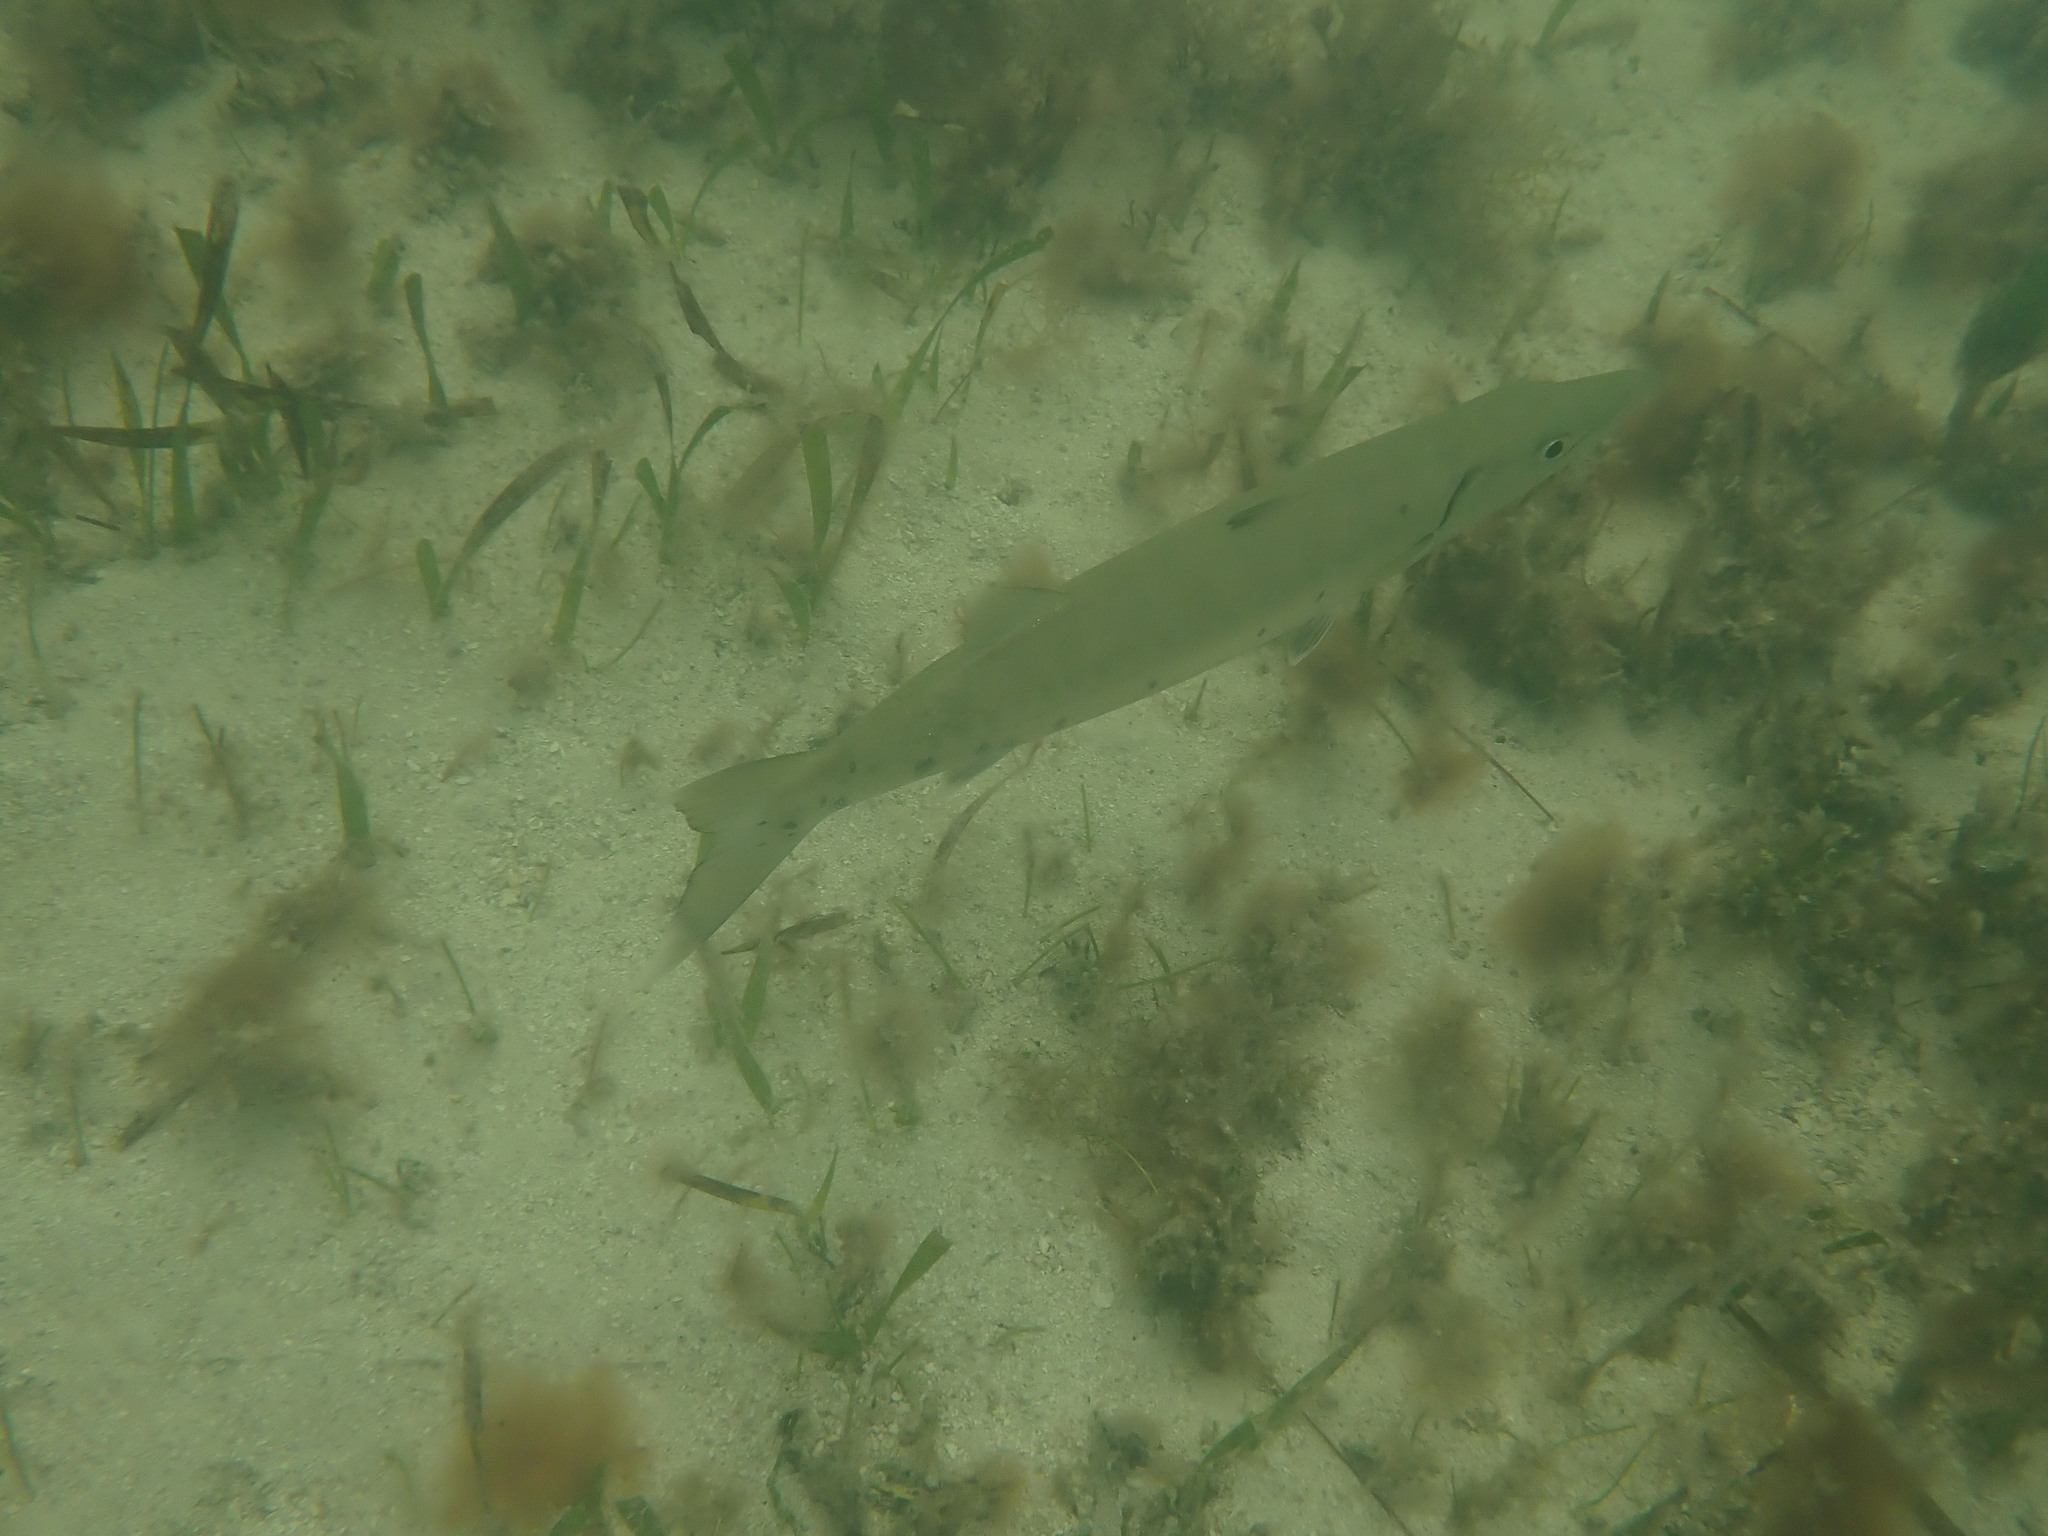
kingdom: Animalia
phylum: Chordata
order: Perciformes
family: Sphyraenidae
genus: Sphyraena
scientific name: Sphyraena barracuda
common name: Great barracuda
